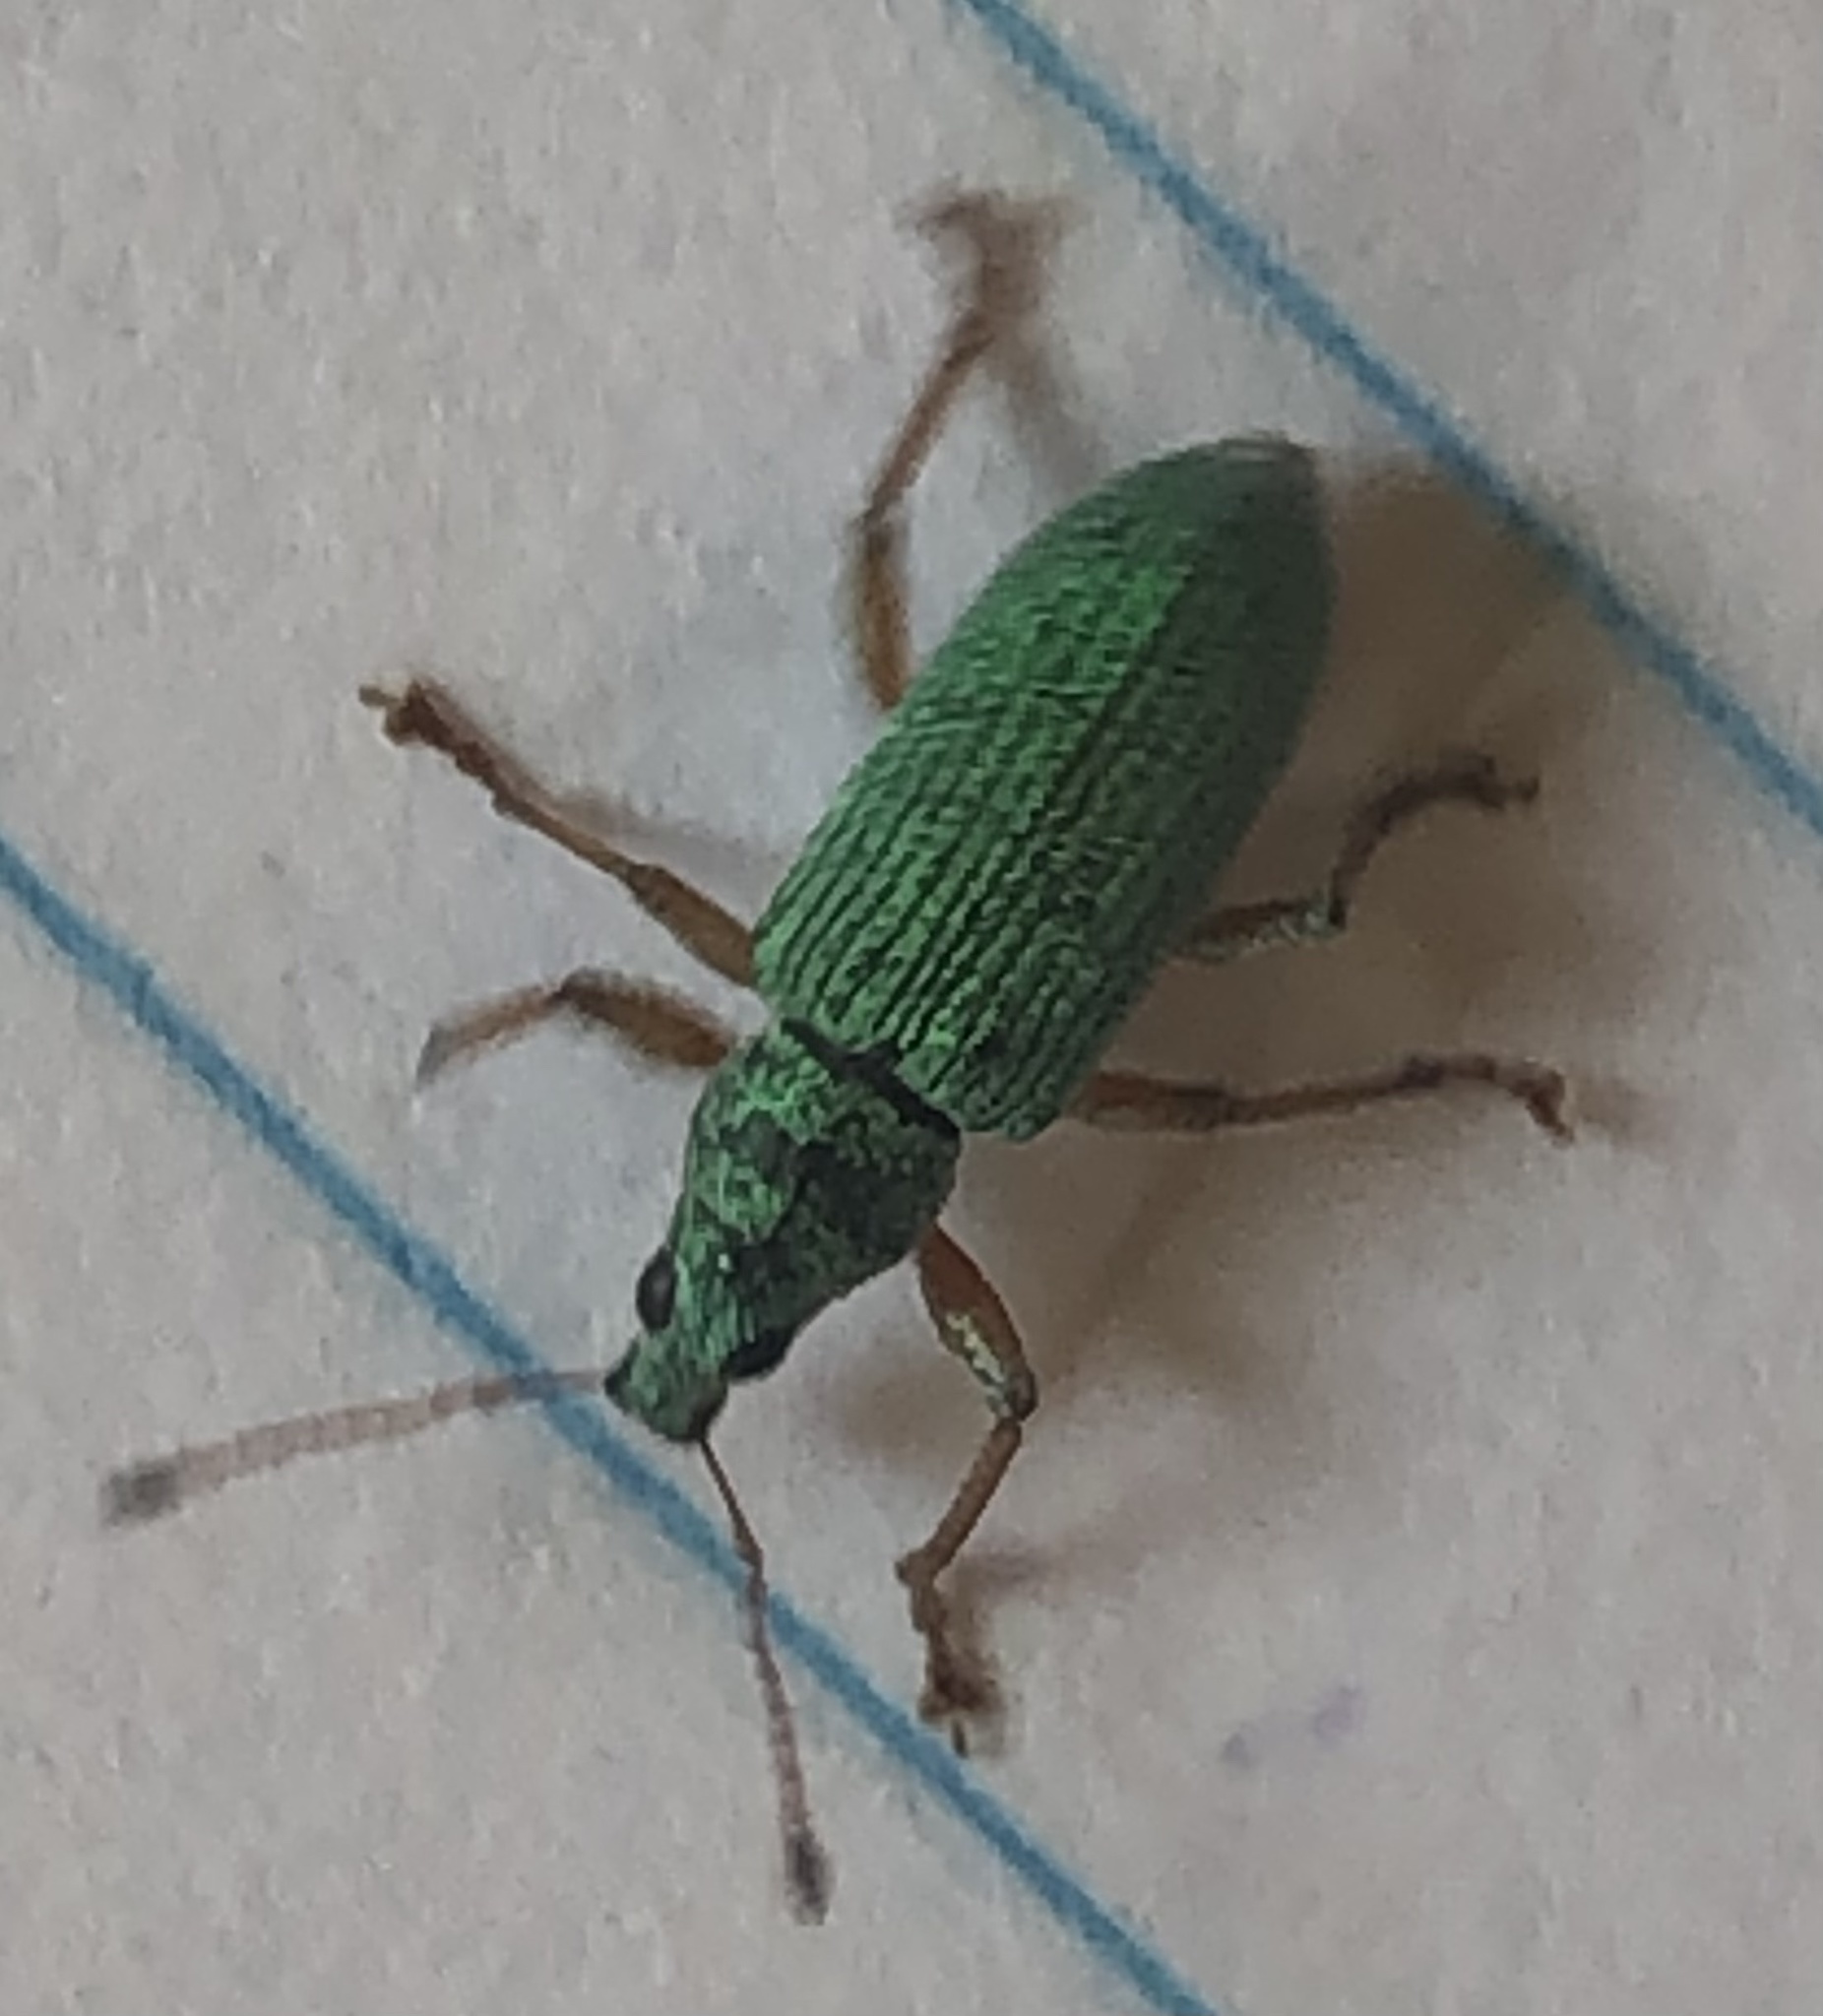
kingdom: Animalia
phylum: Arthropoda
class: Insecta
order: Coleoptera
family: Curculionidae
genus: Polydrusus
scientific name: Polydrusus formosus
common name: Weevil
